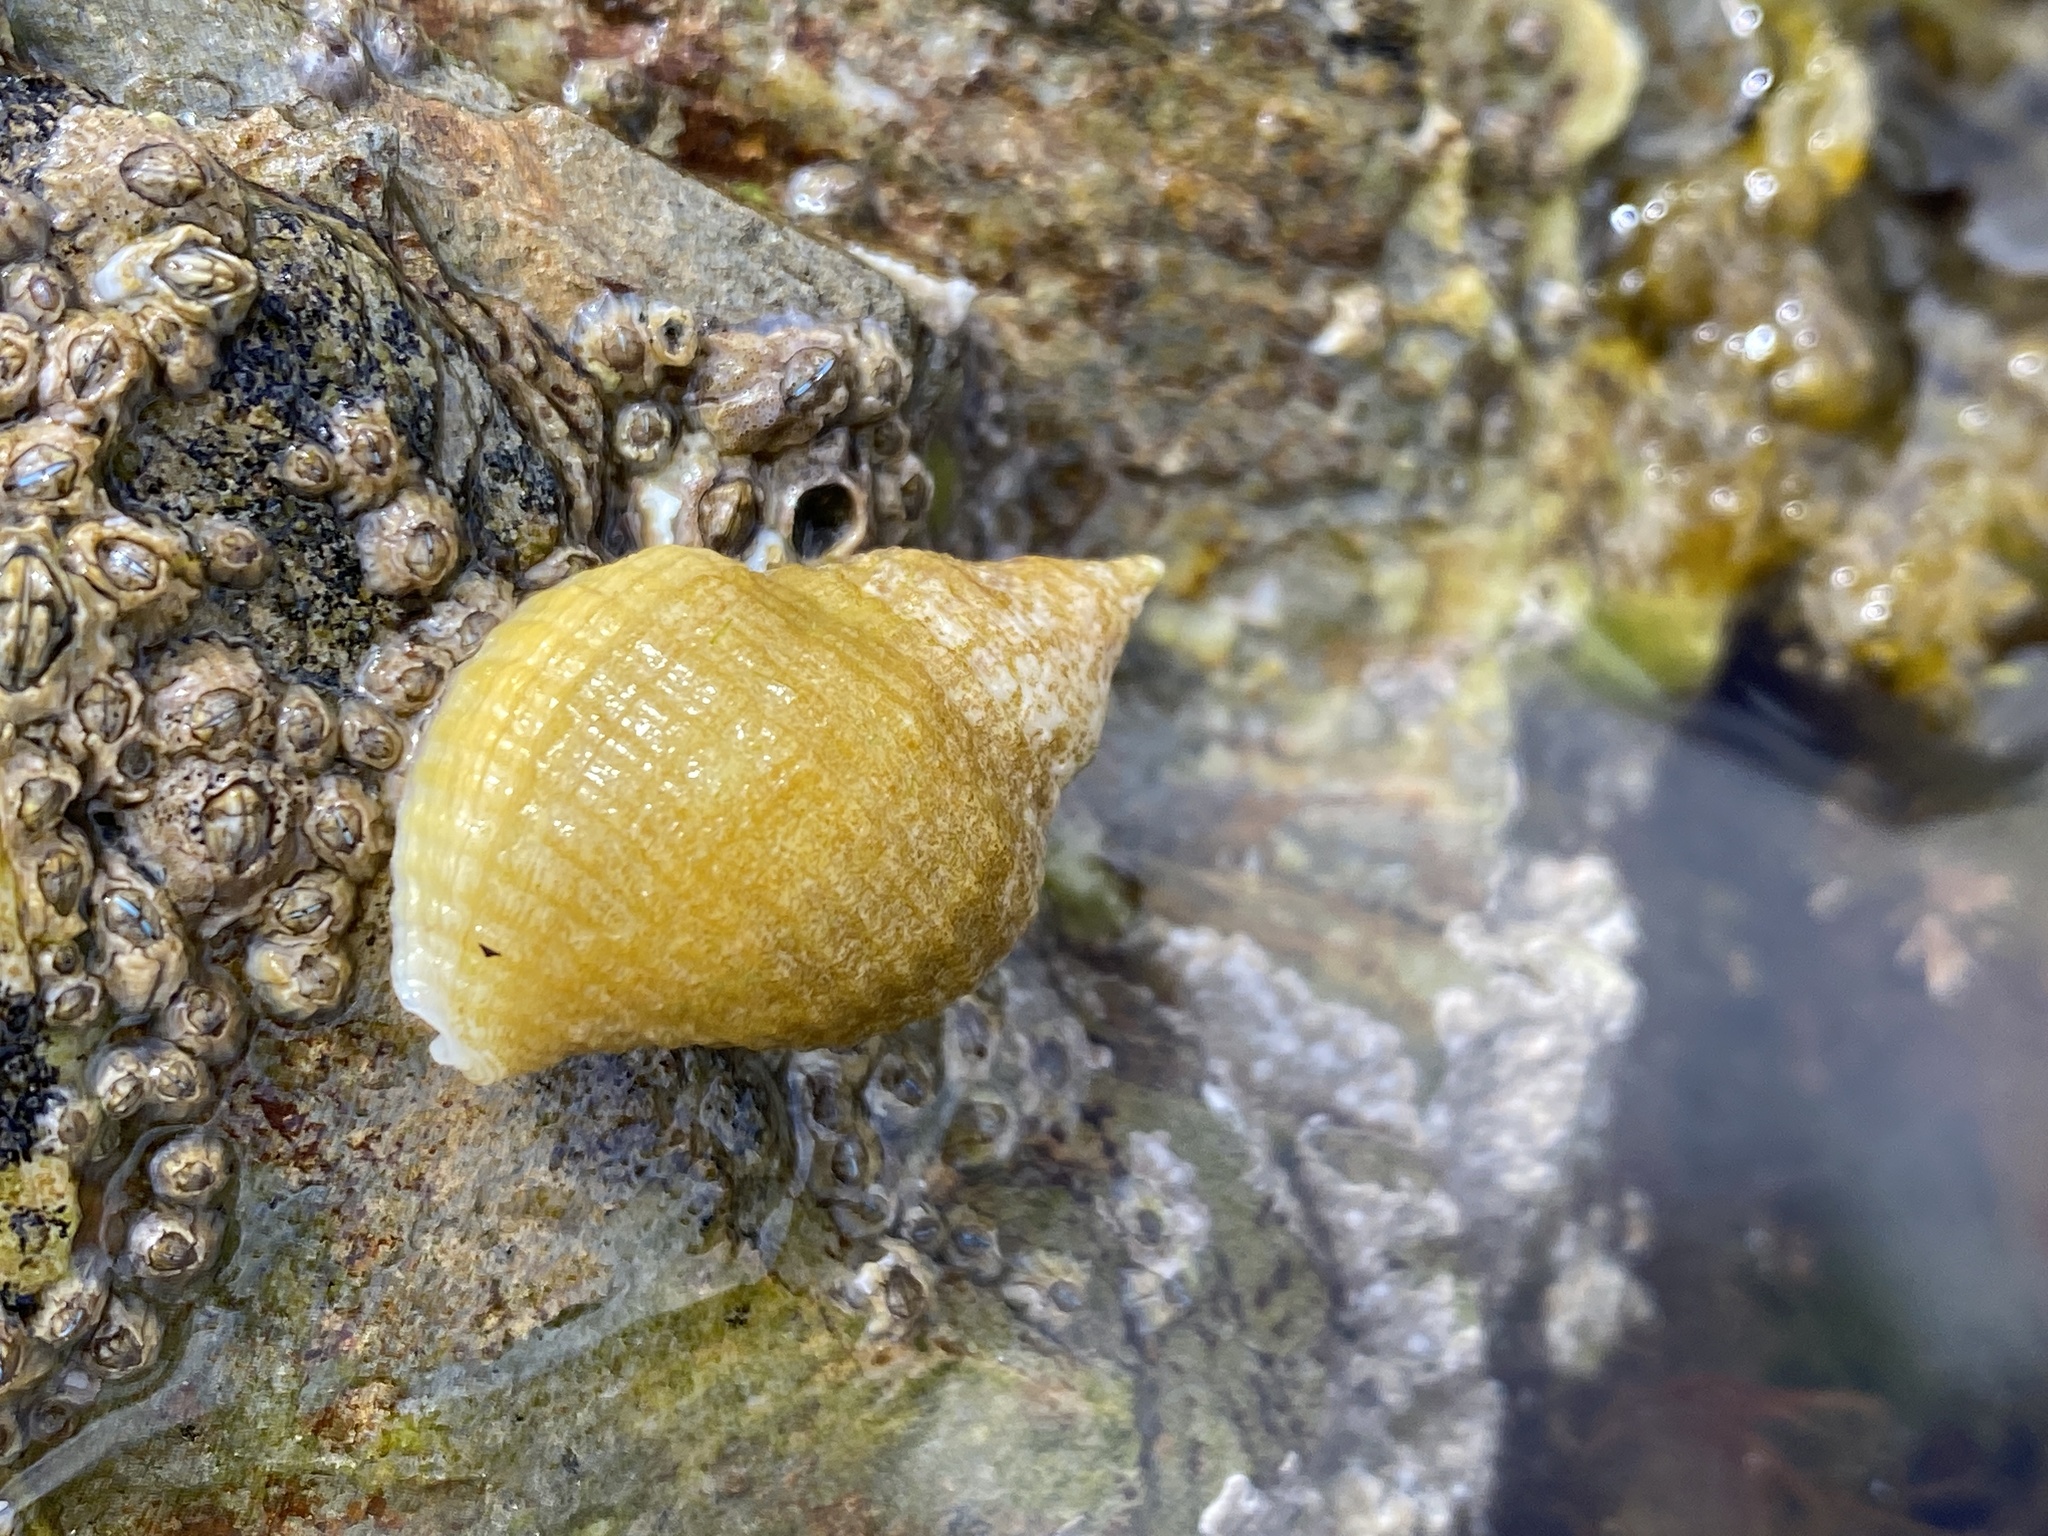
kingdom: Animalia
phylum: Mollusca
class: Gastropoda
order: Neogastropoda
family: Muricidae
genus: Nucella
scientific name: Nucella lapillus
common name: Dog whelk
